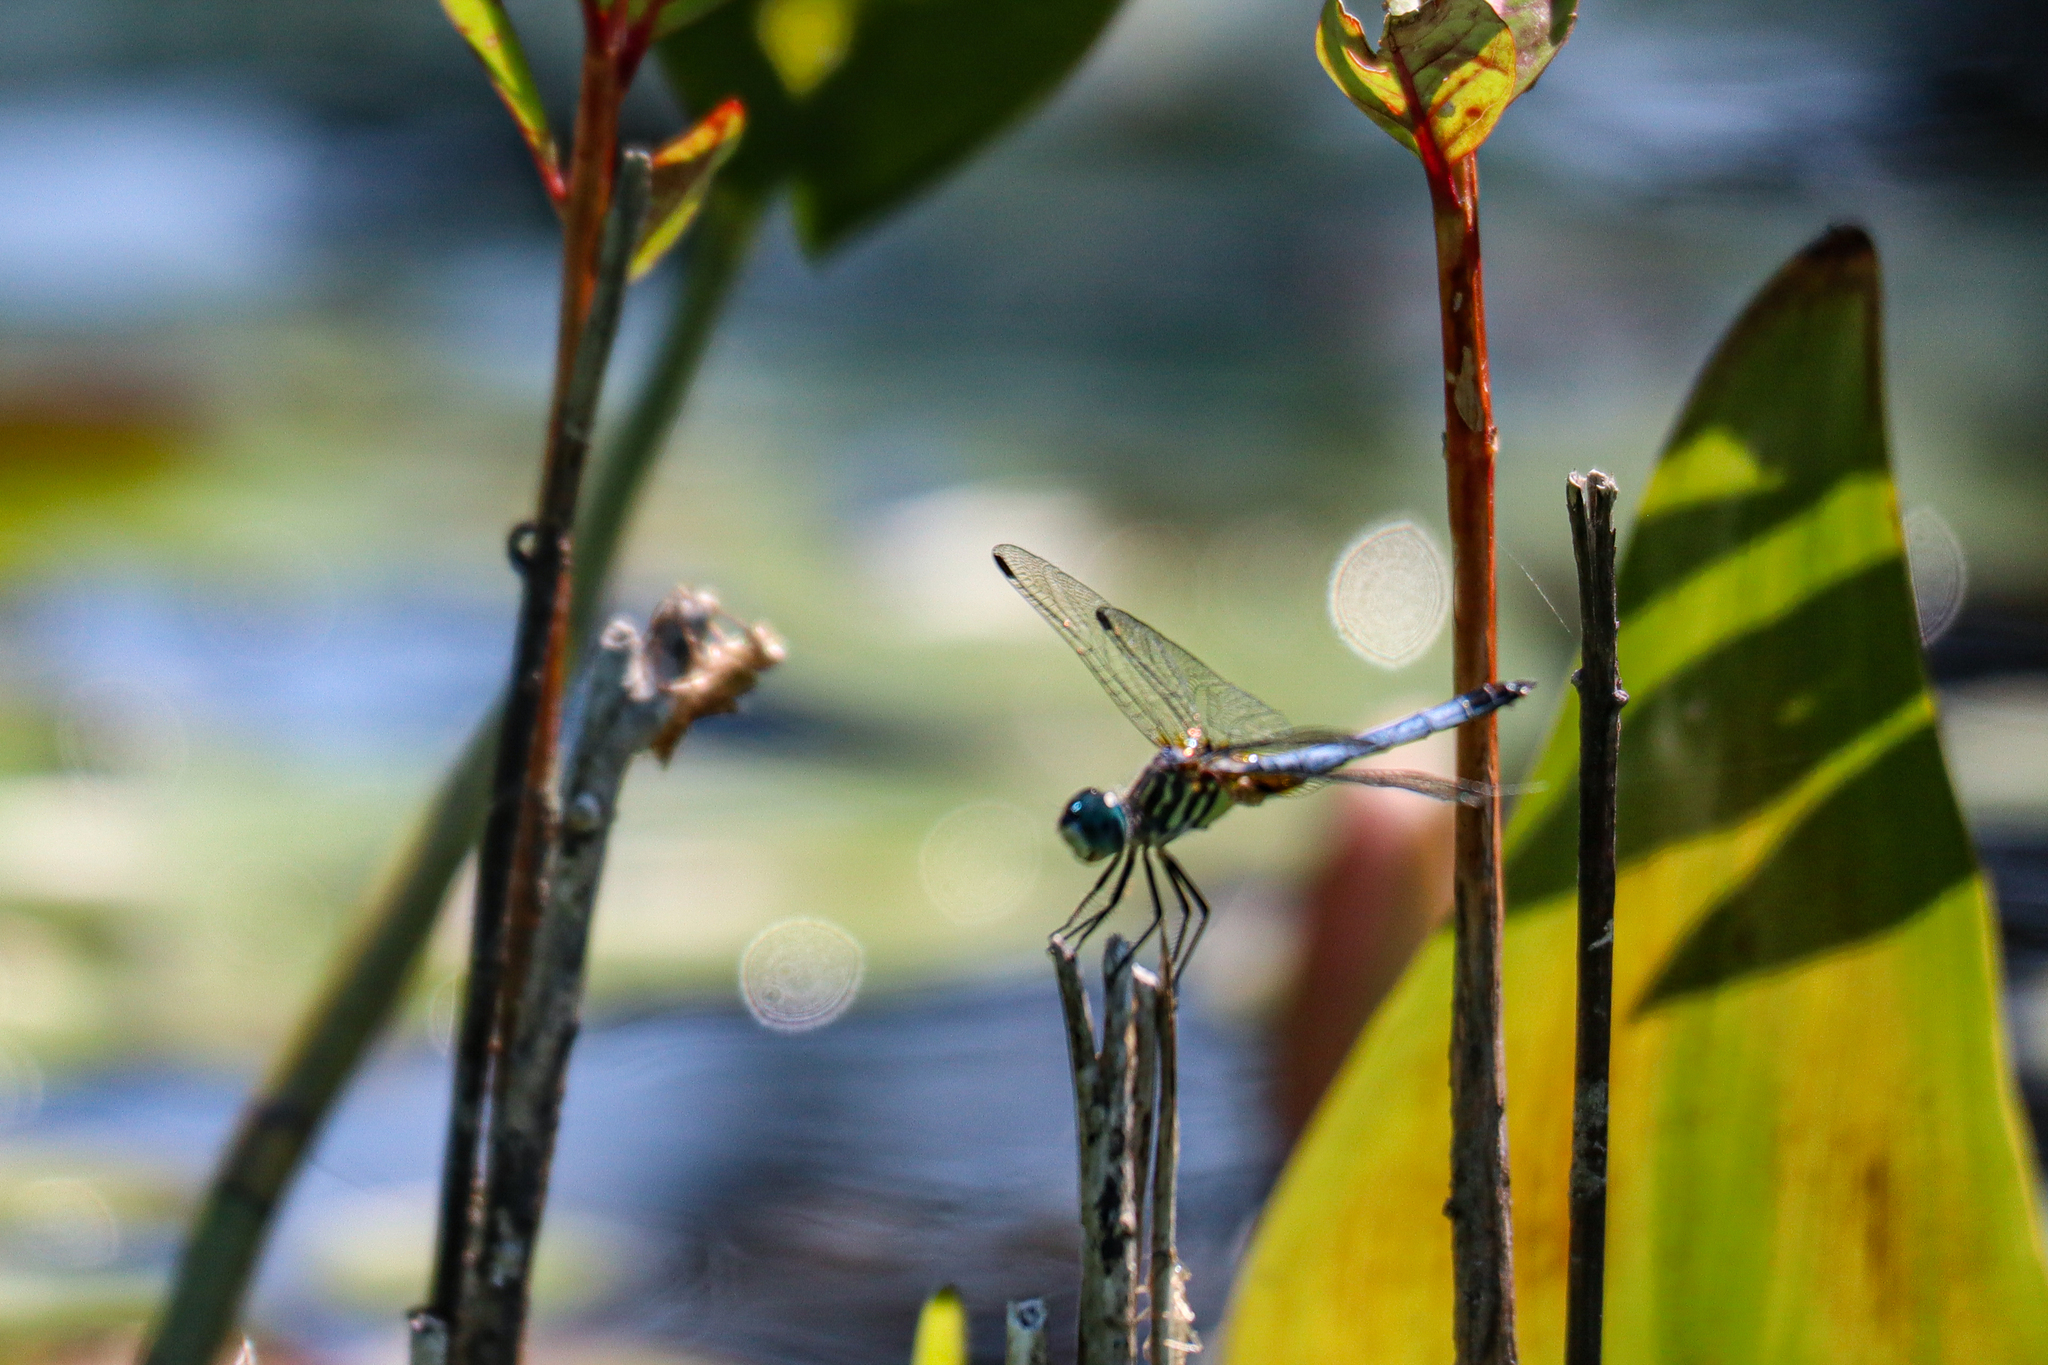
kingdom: Animalia
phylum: Arthropoda
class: Insecta
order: Odonata
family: Libellulidae
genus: Pachydiplax
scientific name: Pachydiplax longipennis
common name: Blue dasher
